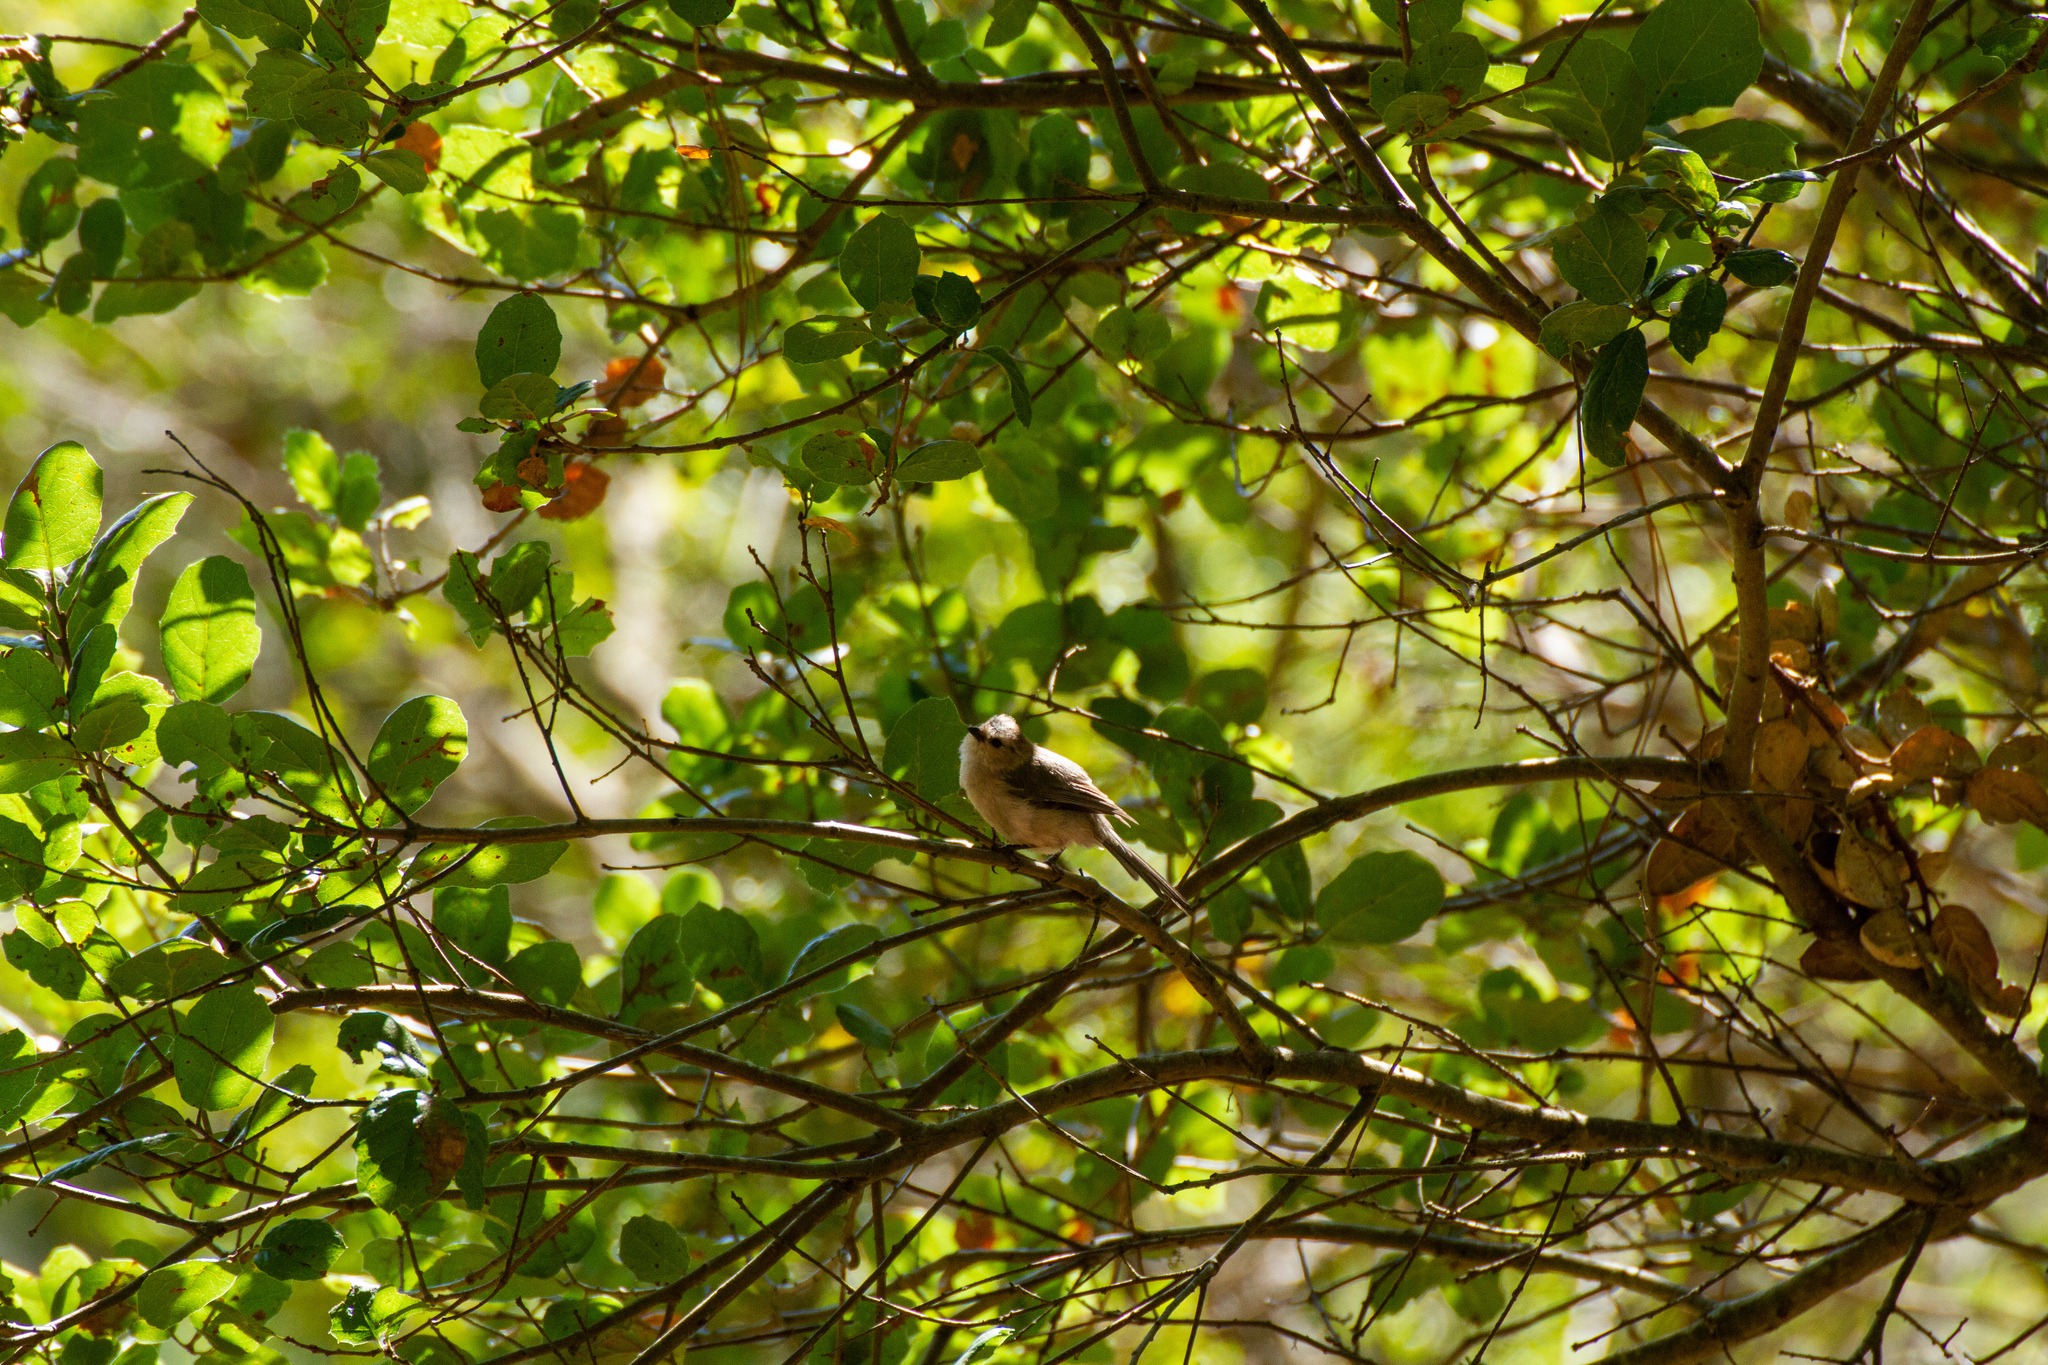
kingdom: Animalia
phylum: Chordata
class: Aves
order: Passeriformes
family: Paridae
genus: Poecile
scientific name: Poecile rufescens
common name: Chestnut-backed chickadee
